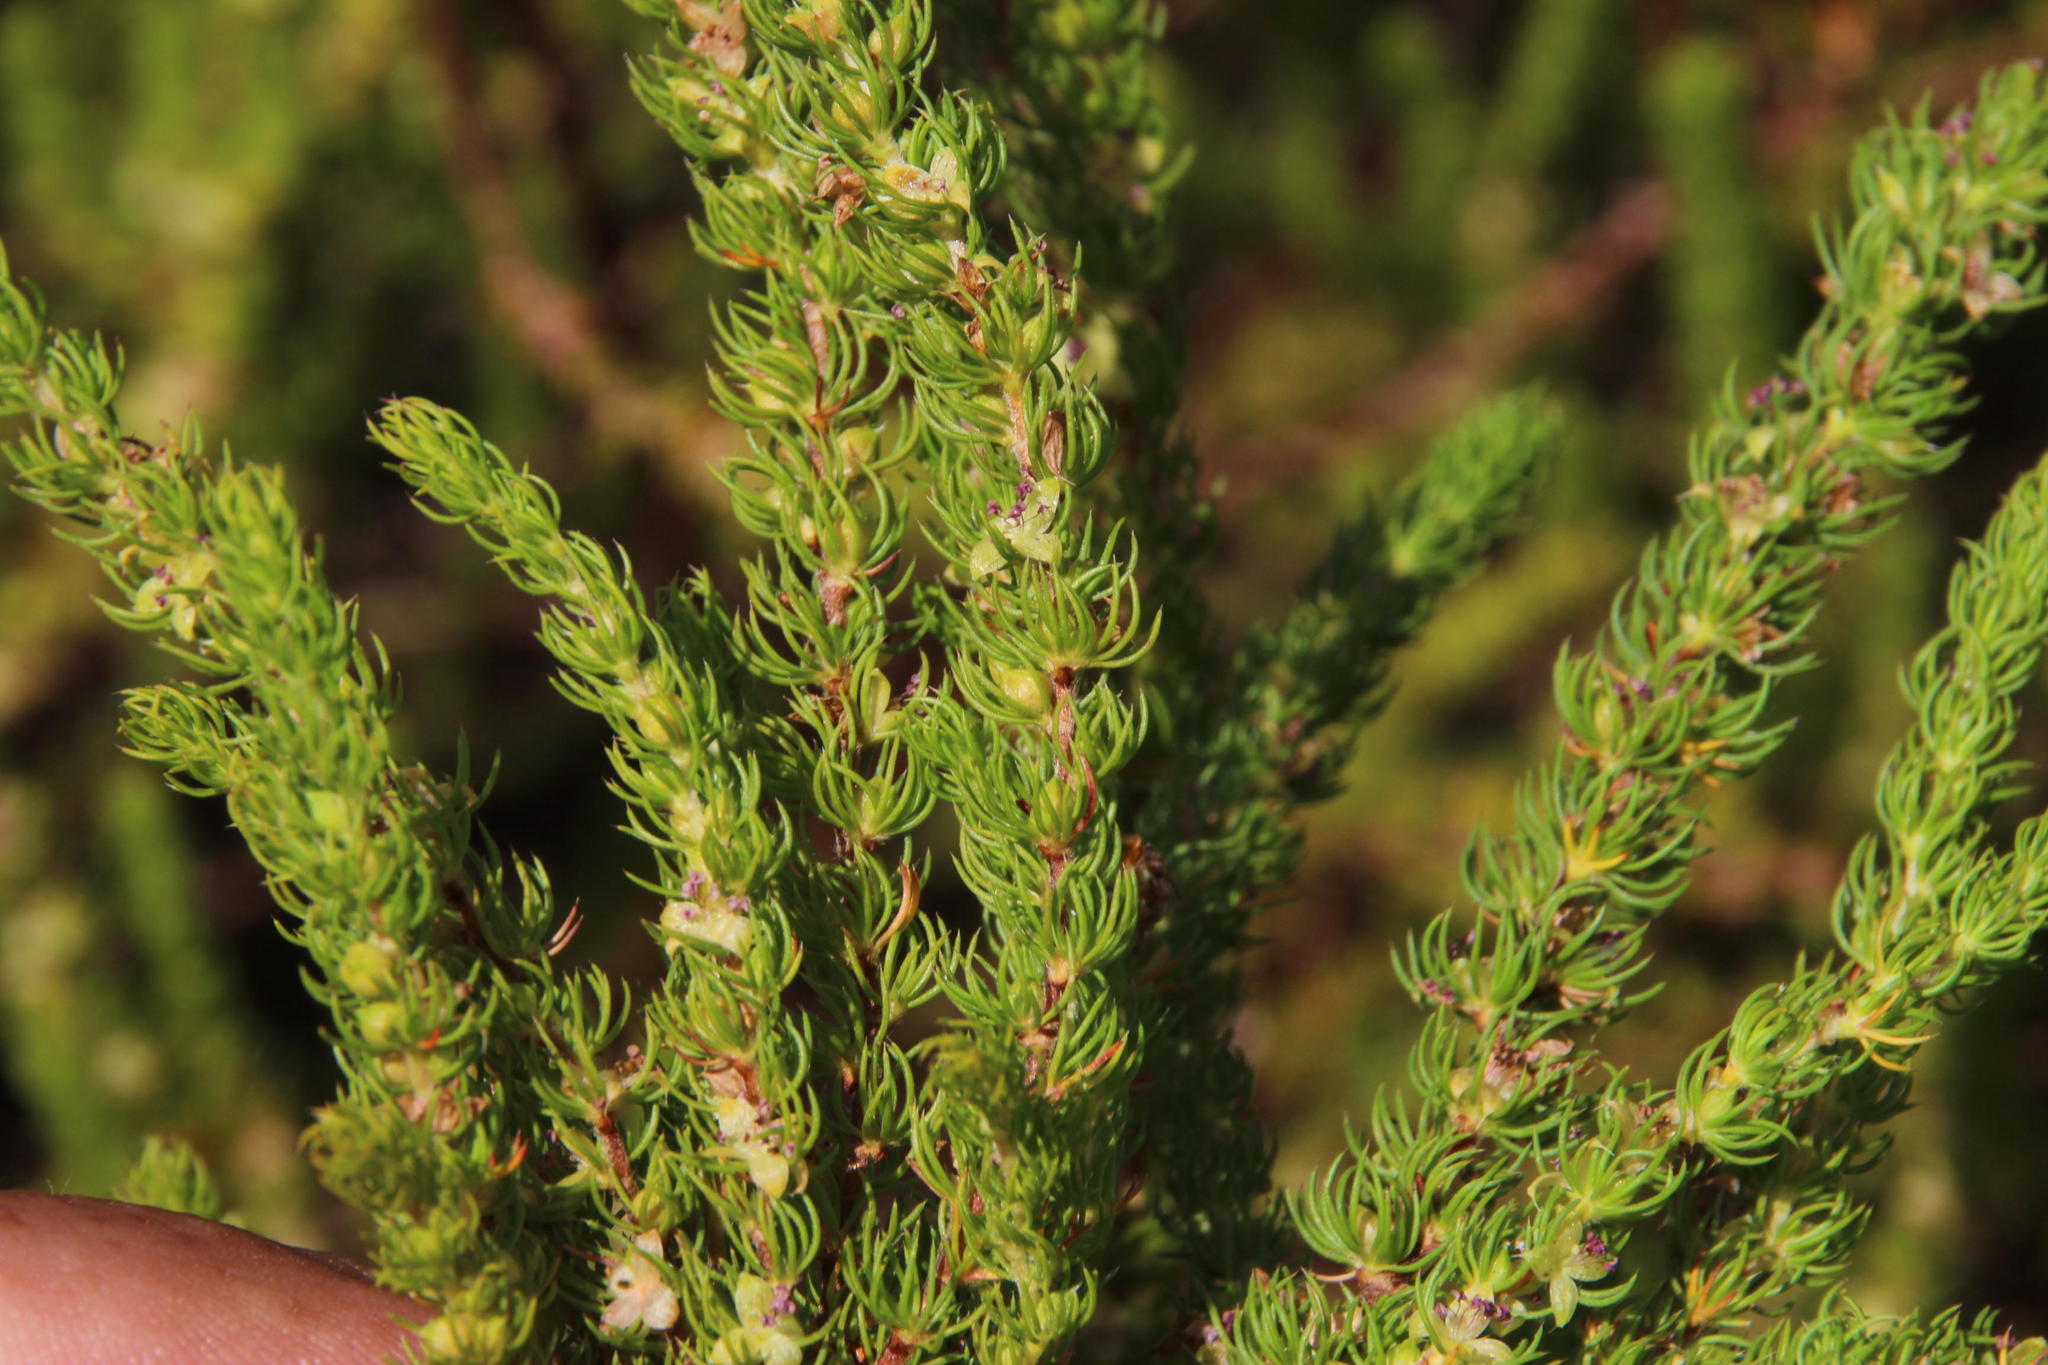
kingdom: Plantae
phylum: Tracheophyta
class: Magnoliopsida
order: Rosales
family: Rosaceae
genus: Cliffortia
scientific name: Cliffortia subsetacea
